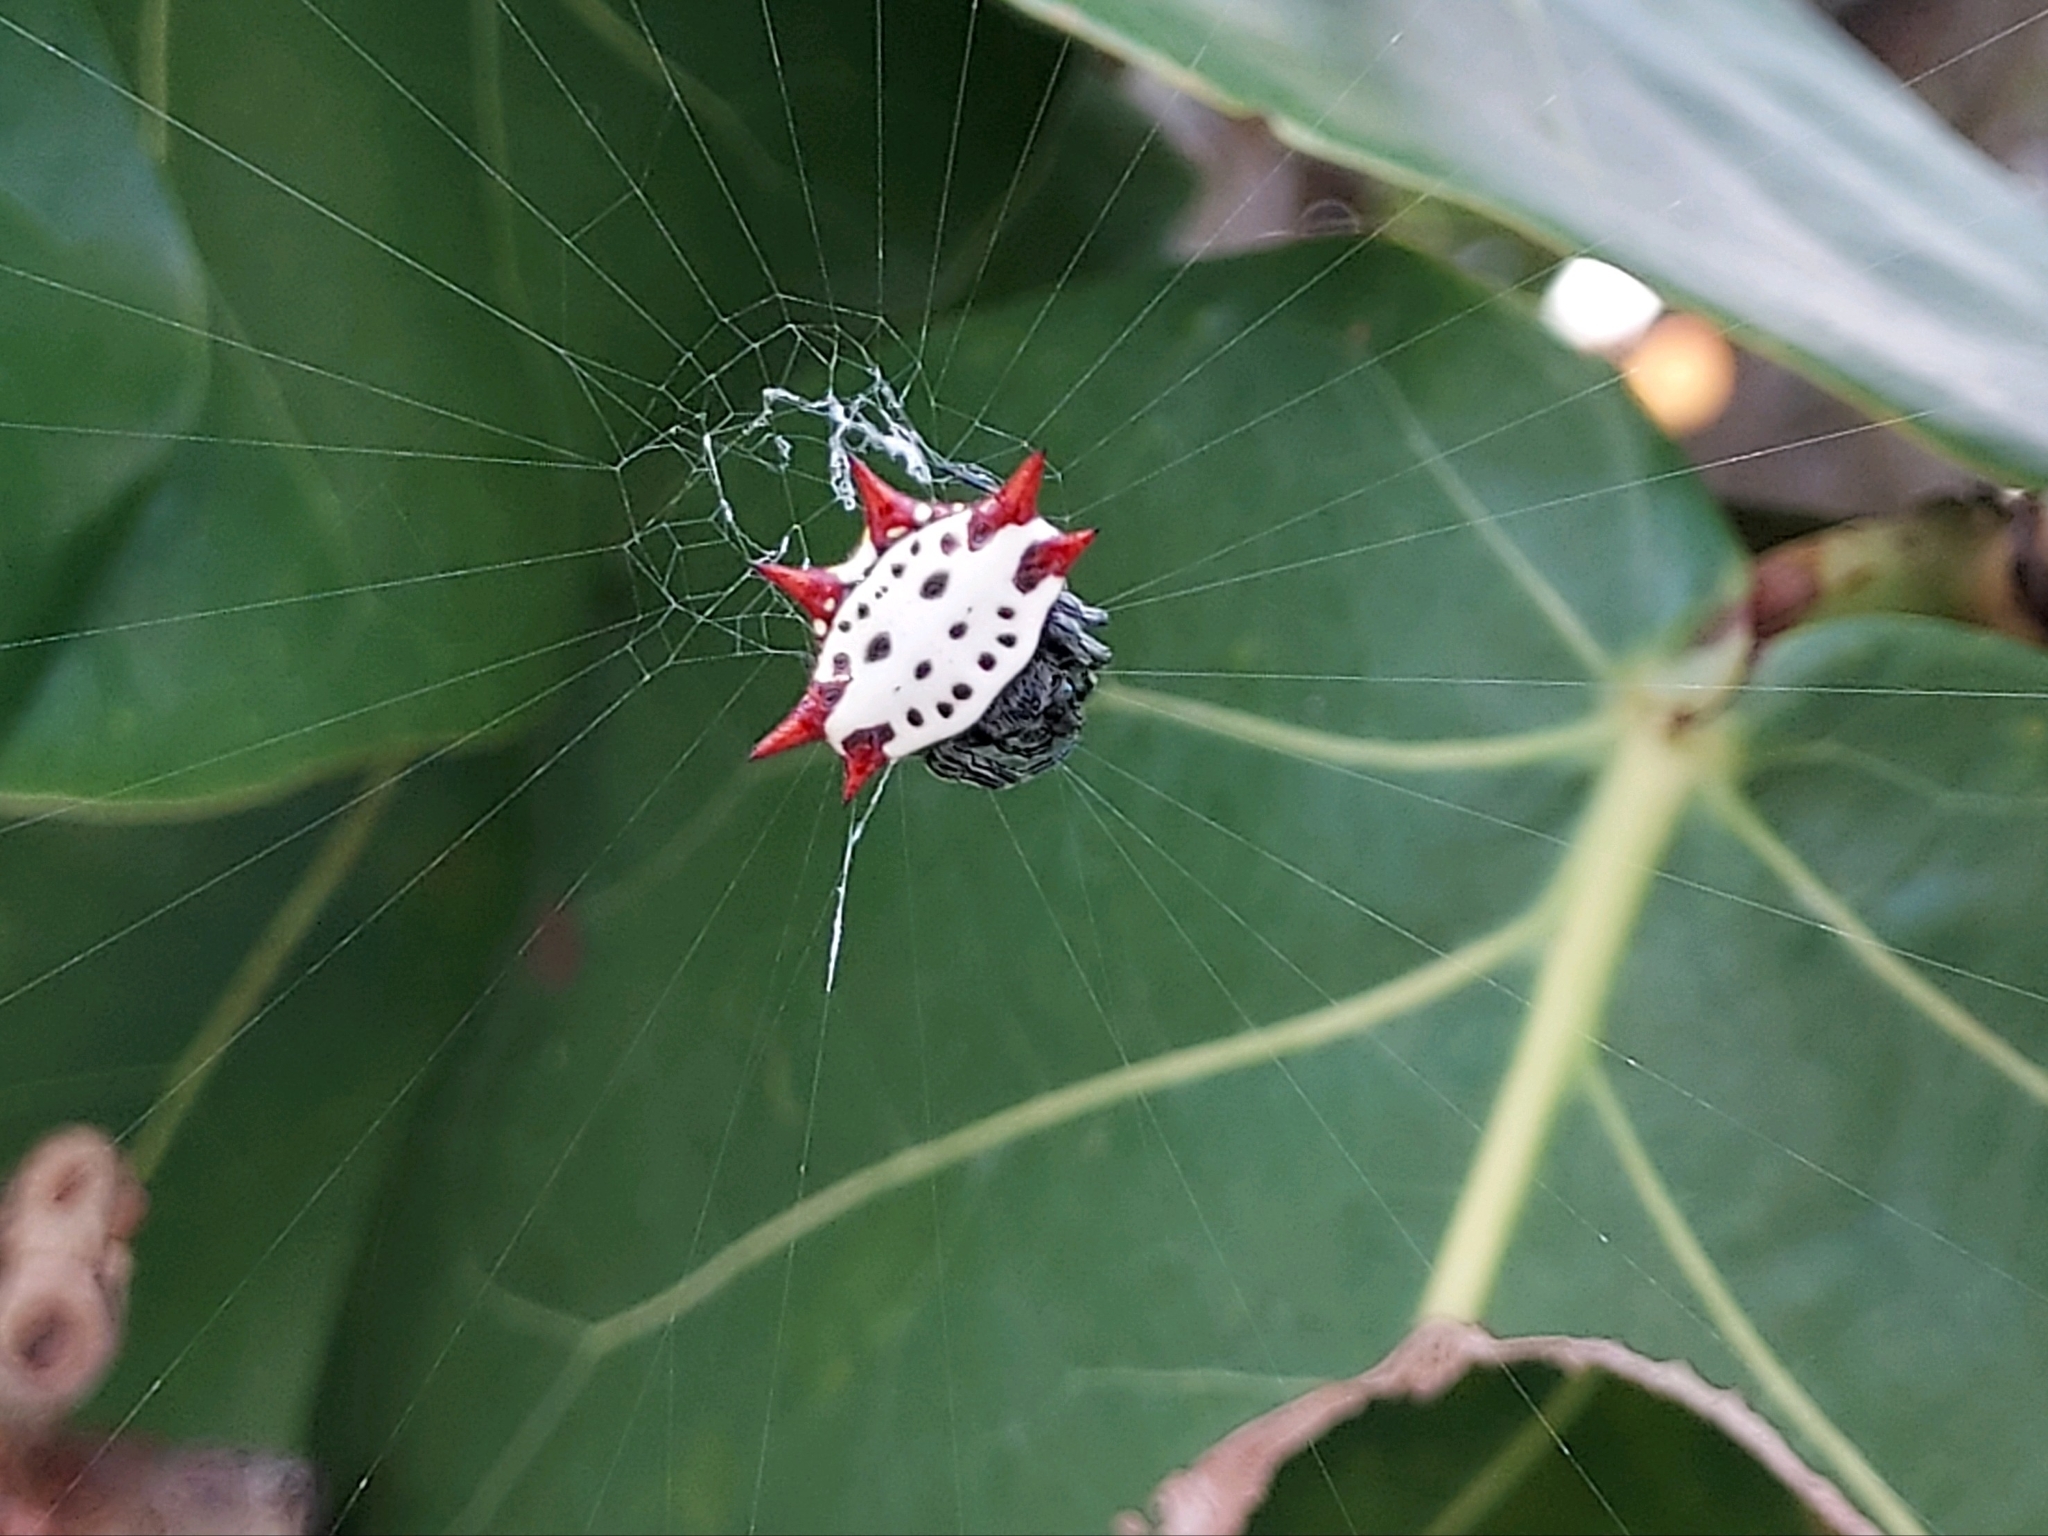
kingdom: Animalia
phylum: Arthropoda
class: Arachnida
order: Araneae
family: Araneidae
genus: Gasteracantha
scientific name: Gasteracantha cancriformis
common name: Orb weavers
